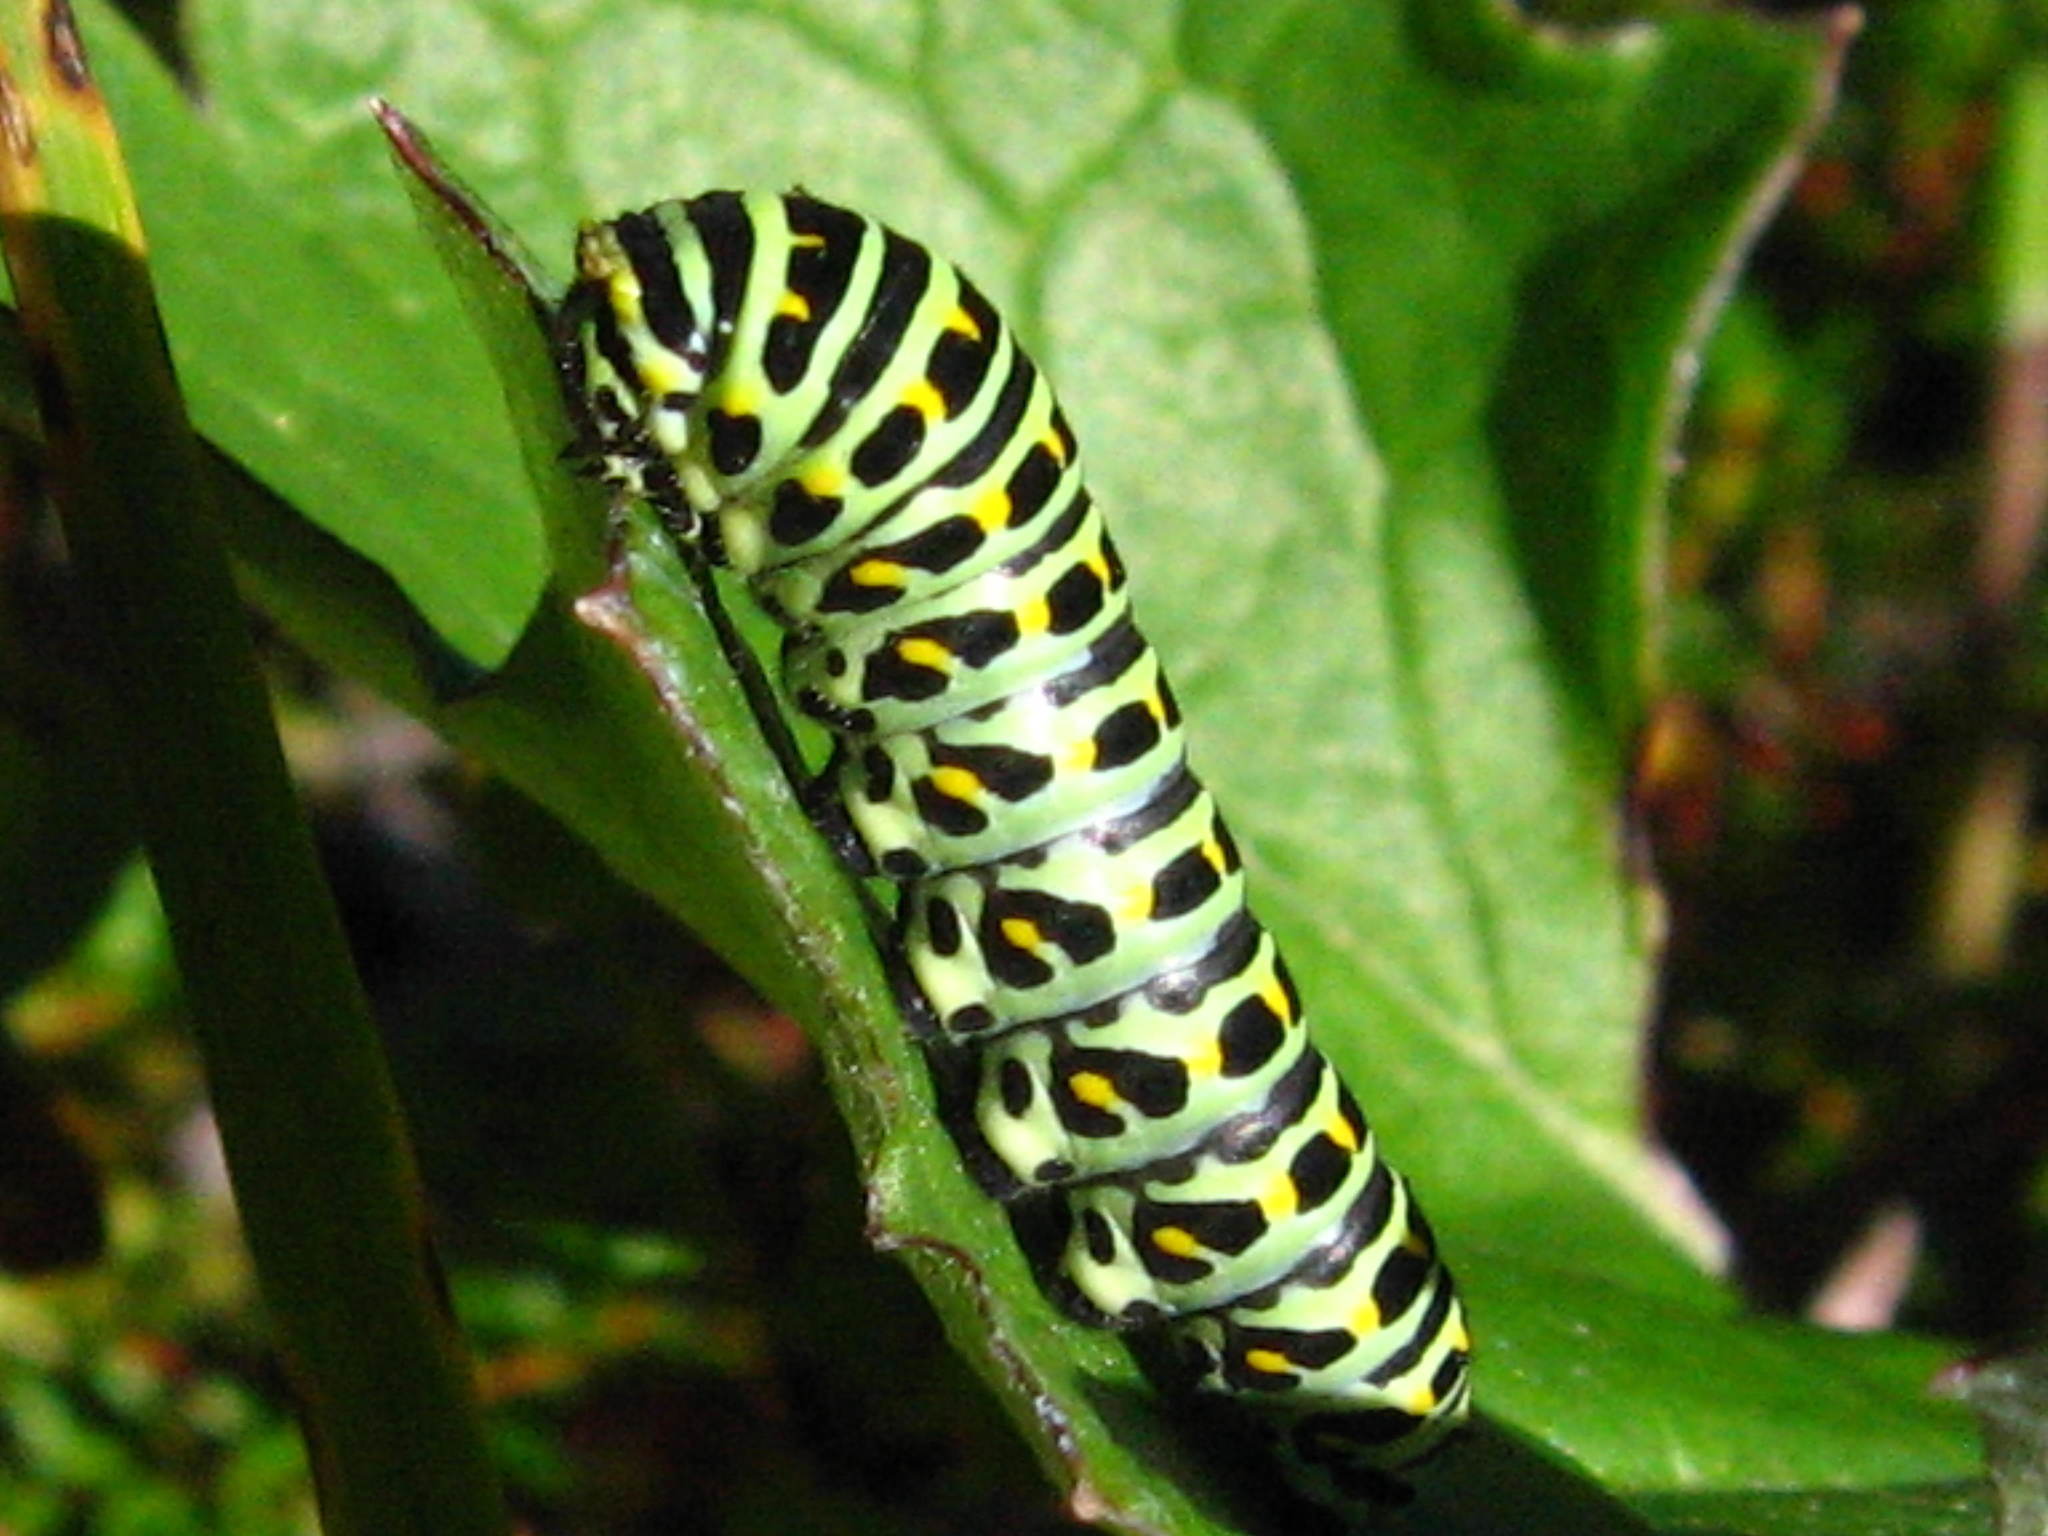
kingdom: Animalia
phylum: Arthropoda
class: Insecta
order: Lepidoptera
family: Papilionidae
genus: Papilio
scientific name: Papilio machaon
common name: Swallowtail
